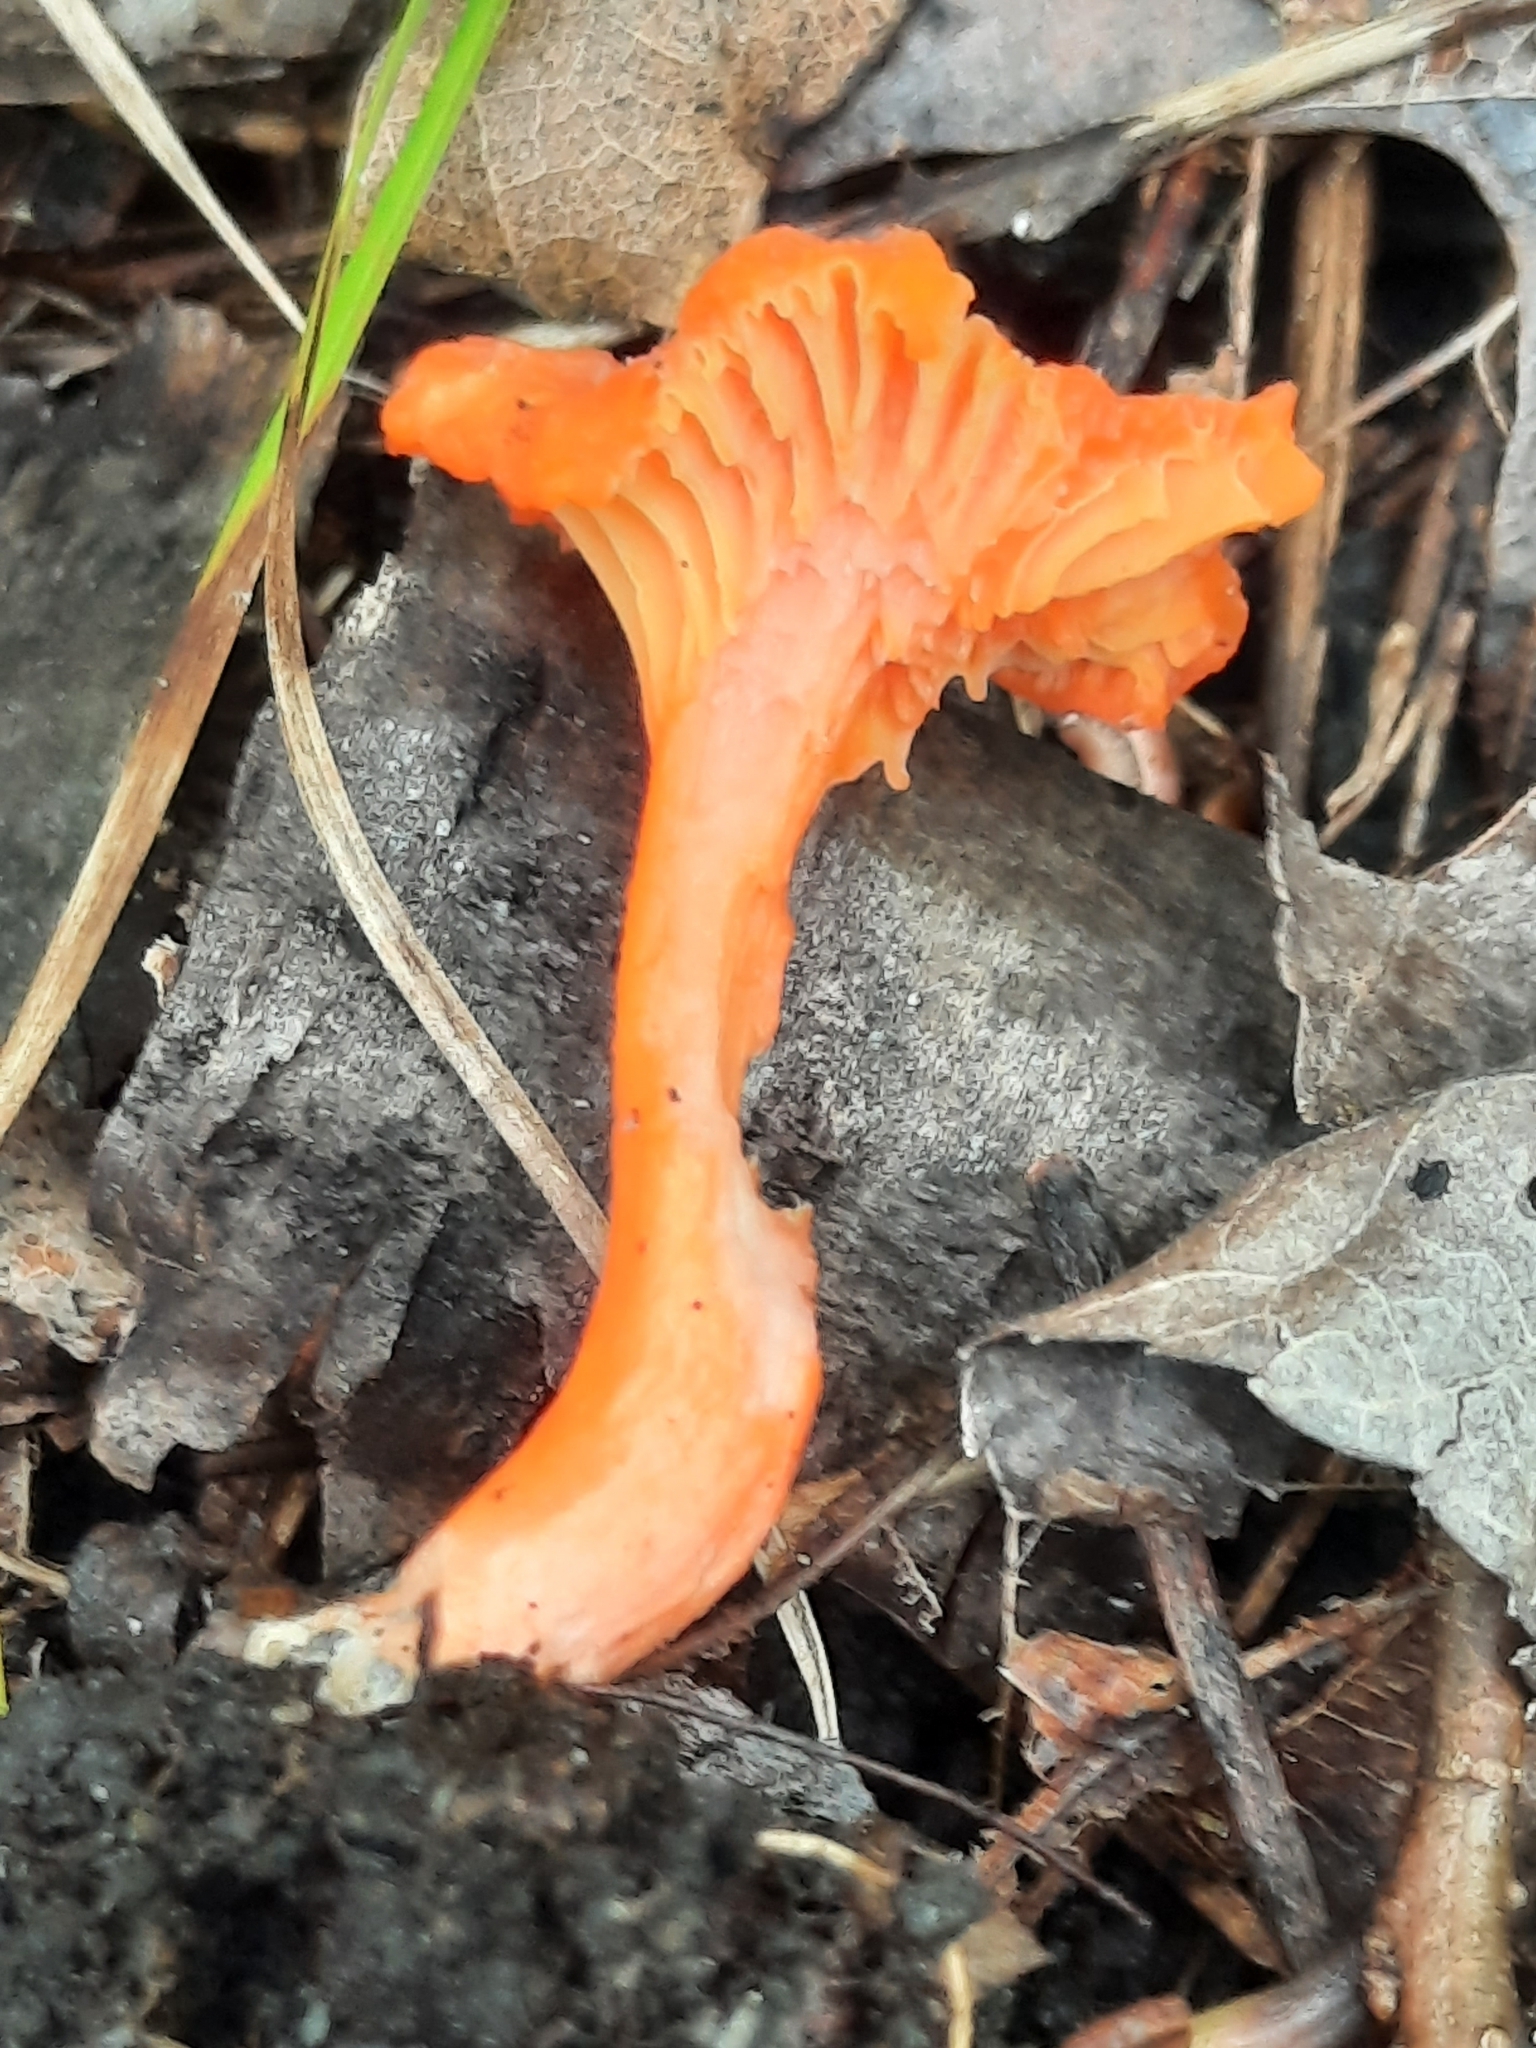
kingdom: Fungi
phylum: Basidiomycota
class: Agaricomycetes
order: Cantharellales
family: Hydnaceae
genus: Cantharellus
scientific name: Cantharellus cinnabarinus
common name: Cinnabar chanterelle
